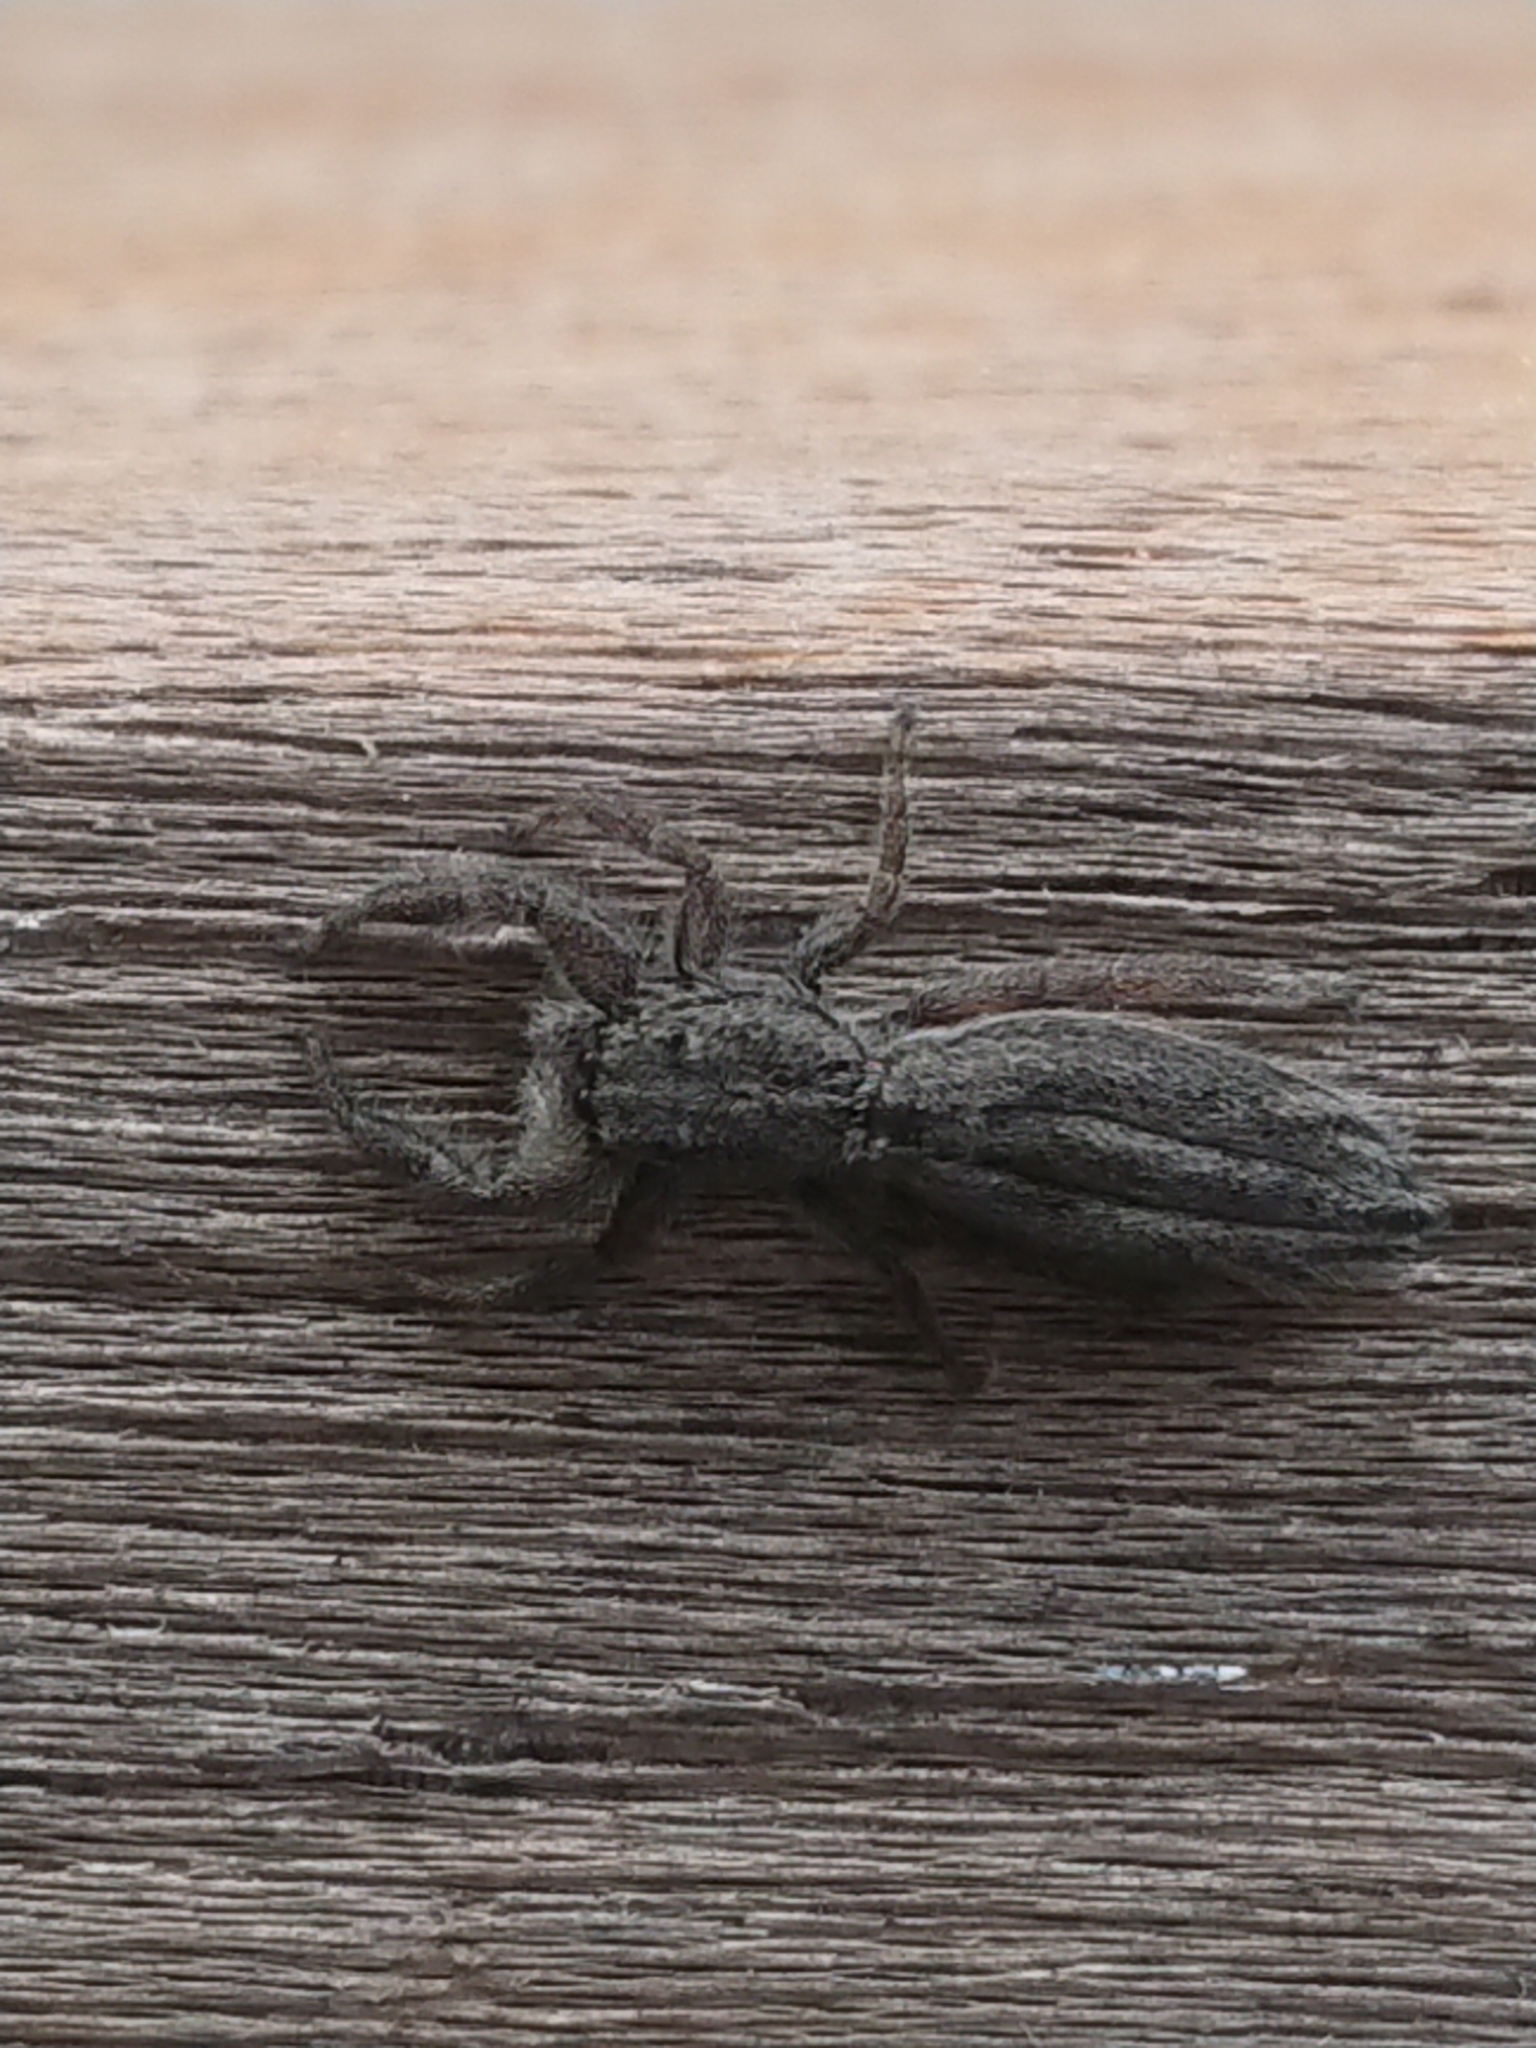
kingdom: Animalia
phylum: Arthropoda
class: Arachnida
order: Araneae
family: Salticidae
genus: Holoplatys
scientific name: Holoplatys apressus
